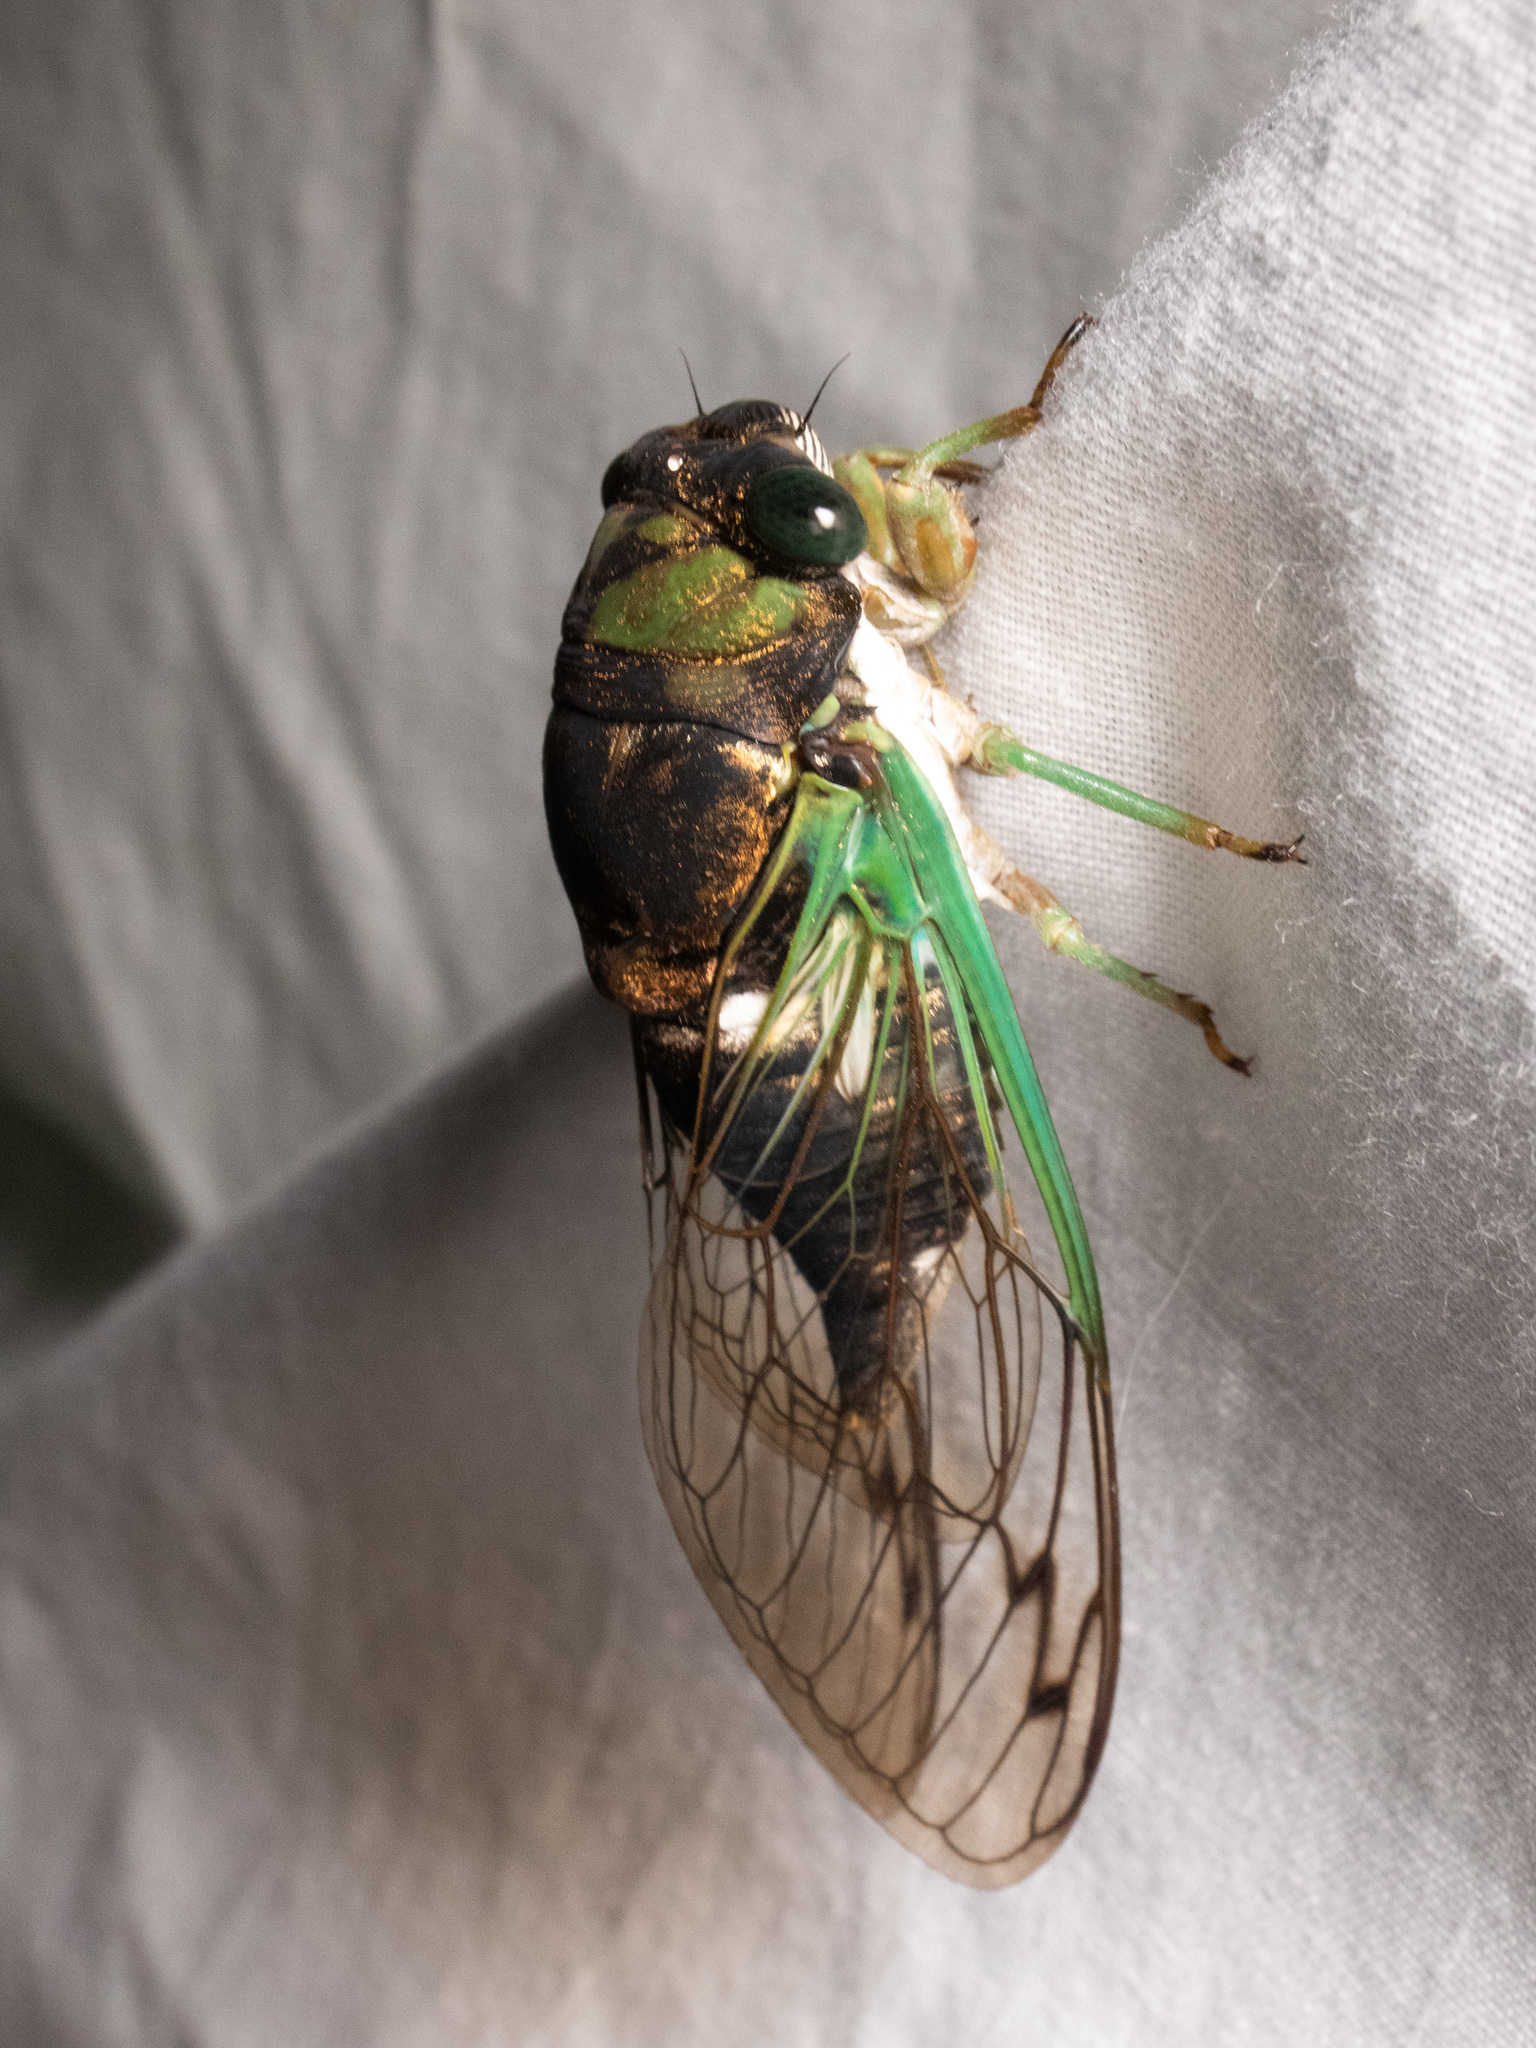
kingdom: Animalia
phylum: Arthropoda
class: Insecta
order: Hemiptera
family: Cicadidae
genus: Neotibicen
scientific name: Neotibicen tibicen
